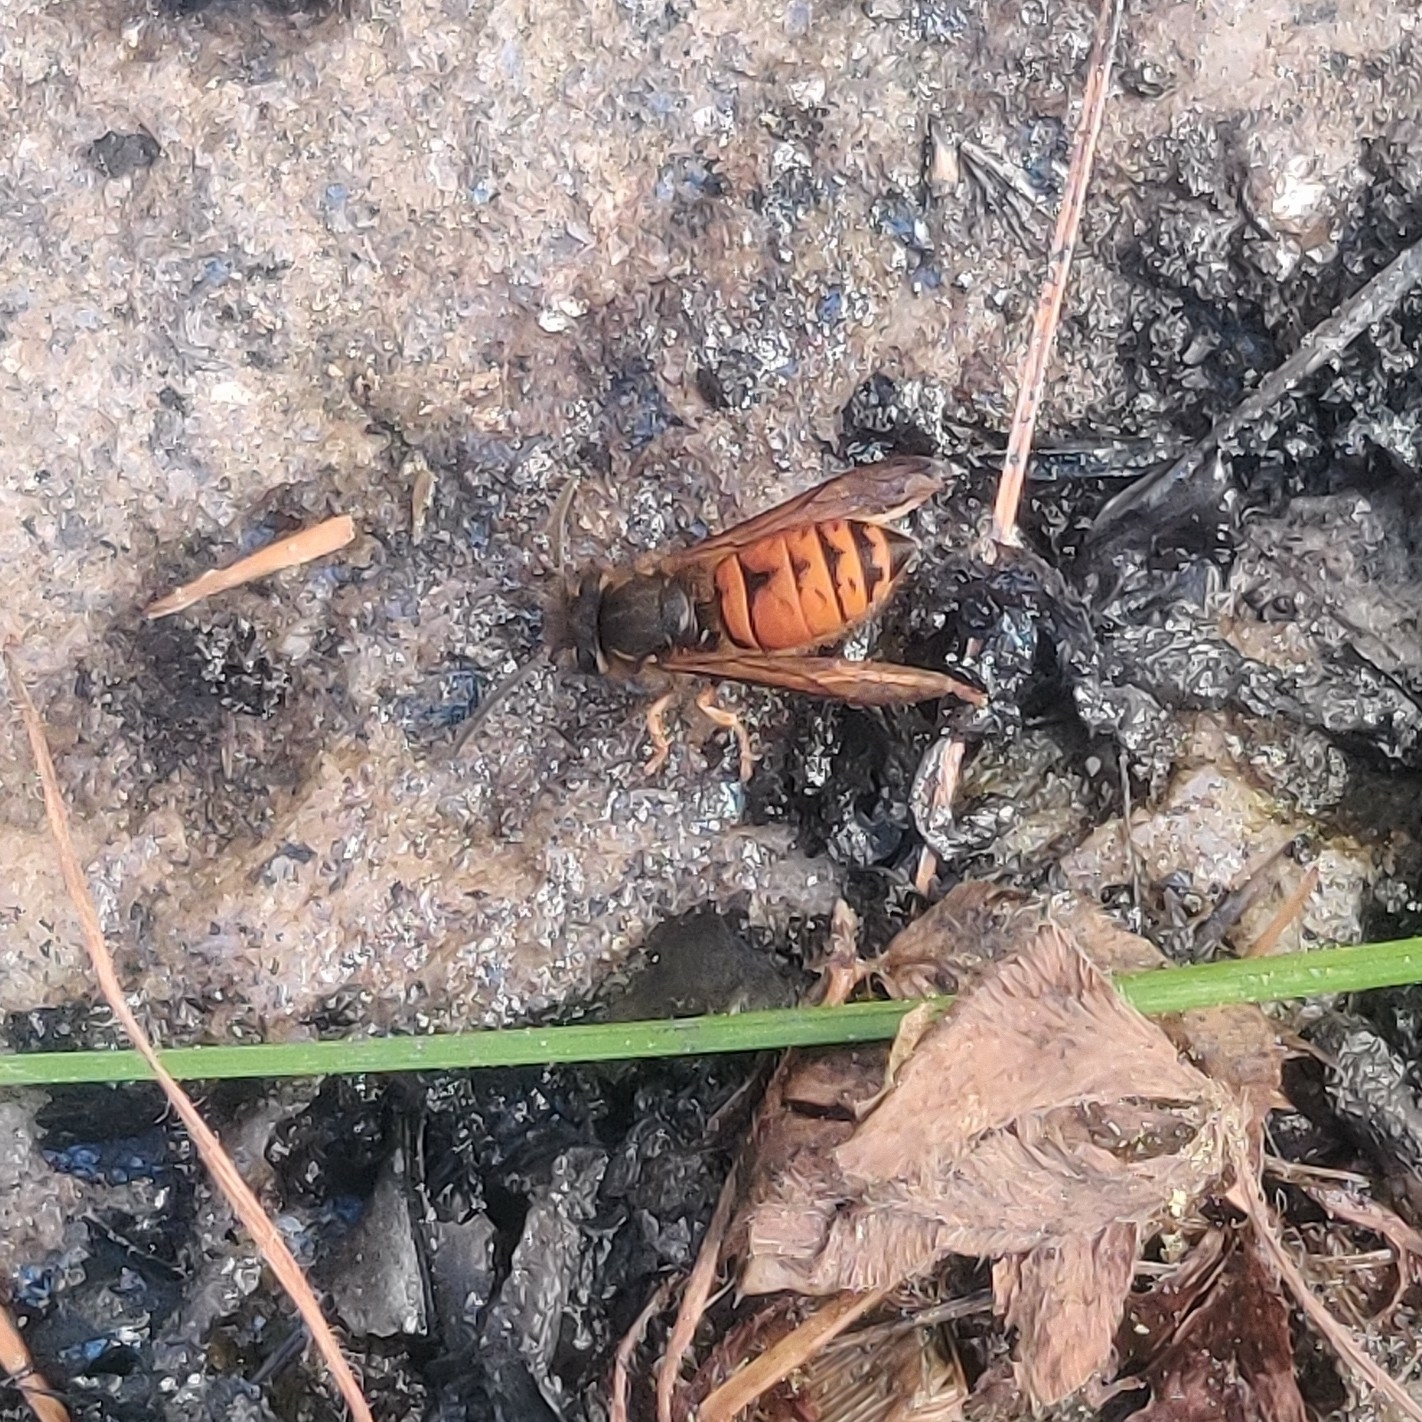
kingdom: Animalia
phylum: Arthropoda
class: Insecta
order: Hymenoptera
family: Vespidae
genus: Vespula
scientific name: Vespula structor
